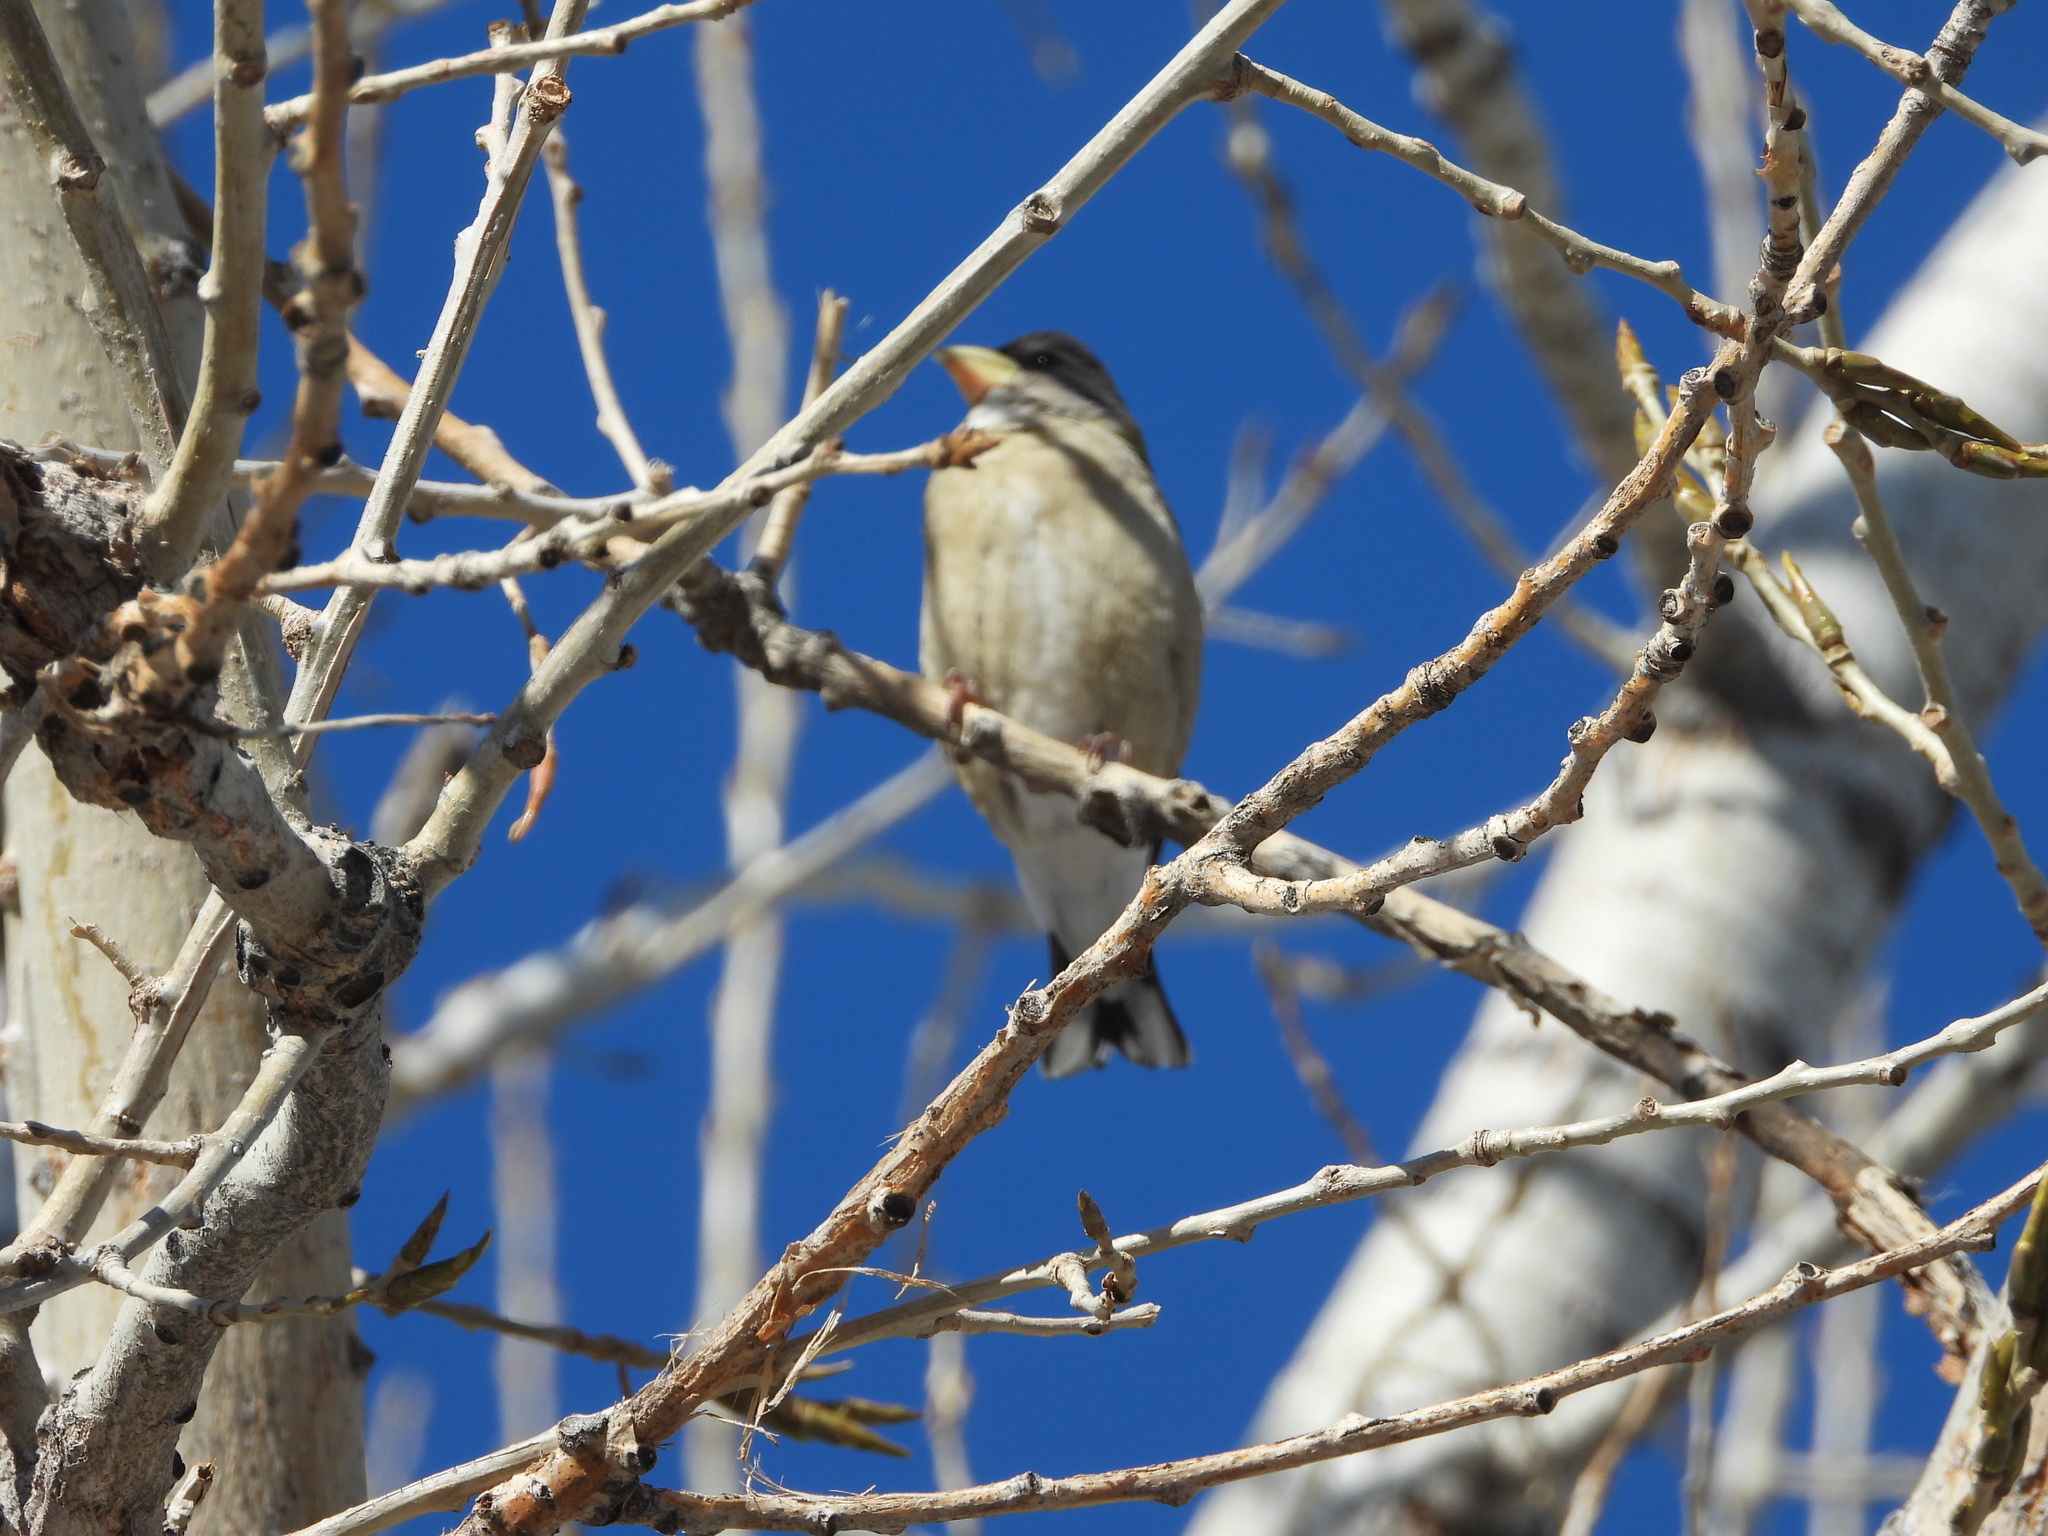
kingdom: Animalia
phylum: Chordata
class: Aves
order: Passeriformes
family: Fringillidae
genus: Hesperiphona
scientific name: Hesperiphona vespertina
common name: Evening grosbeak
